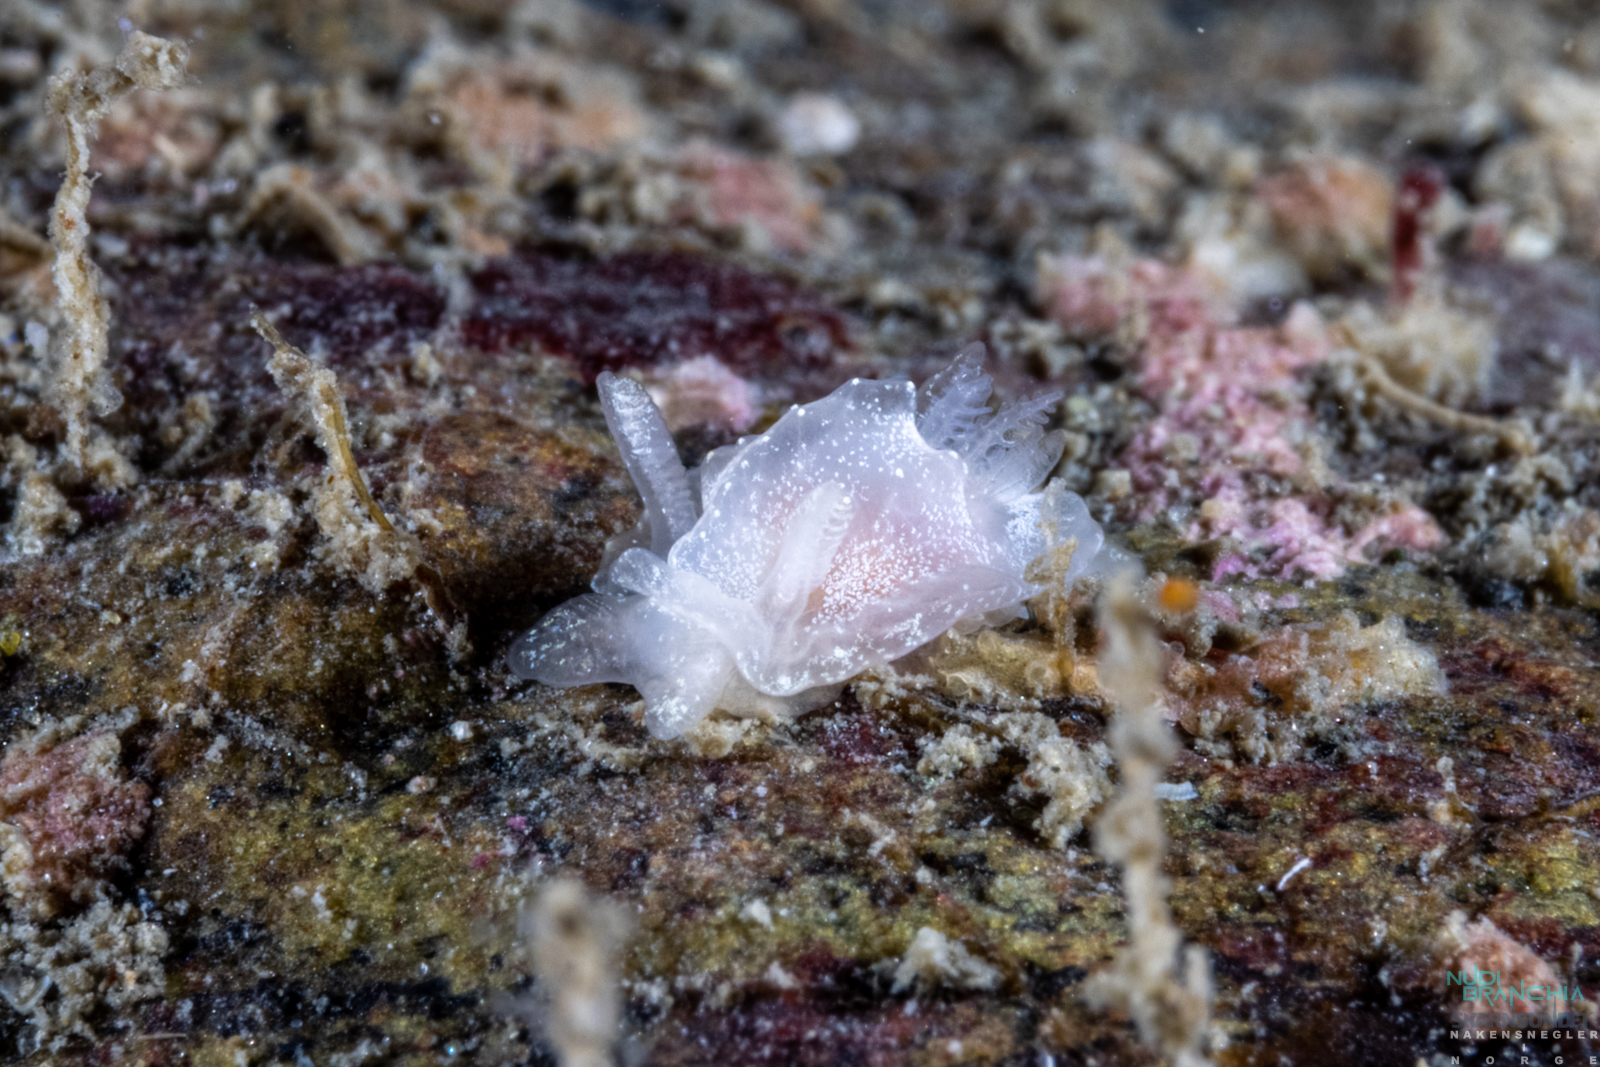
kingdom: Animalia
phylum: Mollusca
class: Gastropoda
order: Nudibranchia
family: Goniodorididae
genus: Okenia
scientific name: Okenia
